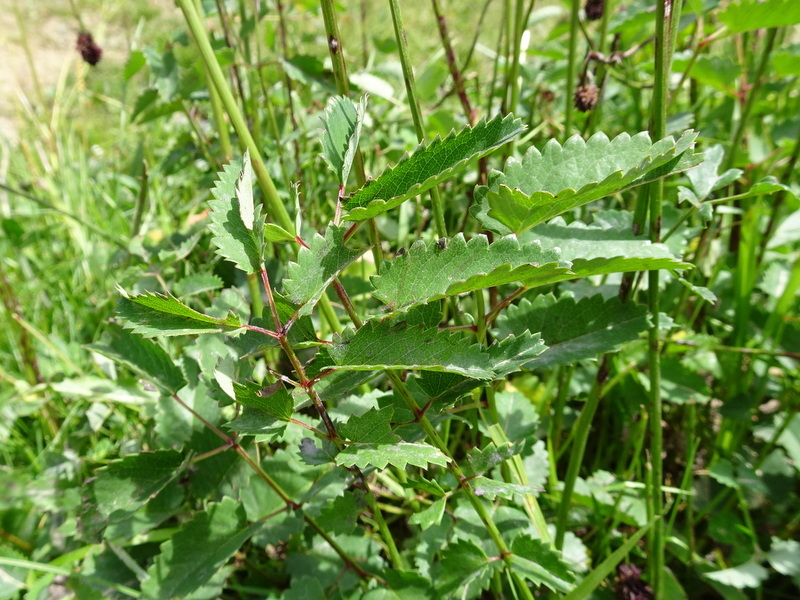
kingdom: Plantae
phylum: Tracheophyta
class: Magnoliopsida
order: Rosales
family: Rosaceae
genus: Sanguisorba
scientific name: Sanguisorba officinalis
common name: Great burnet
